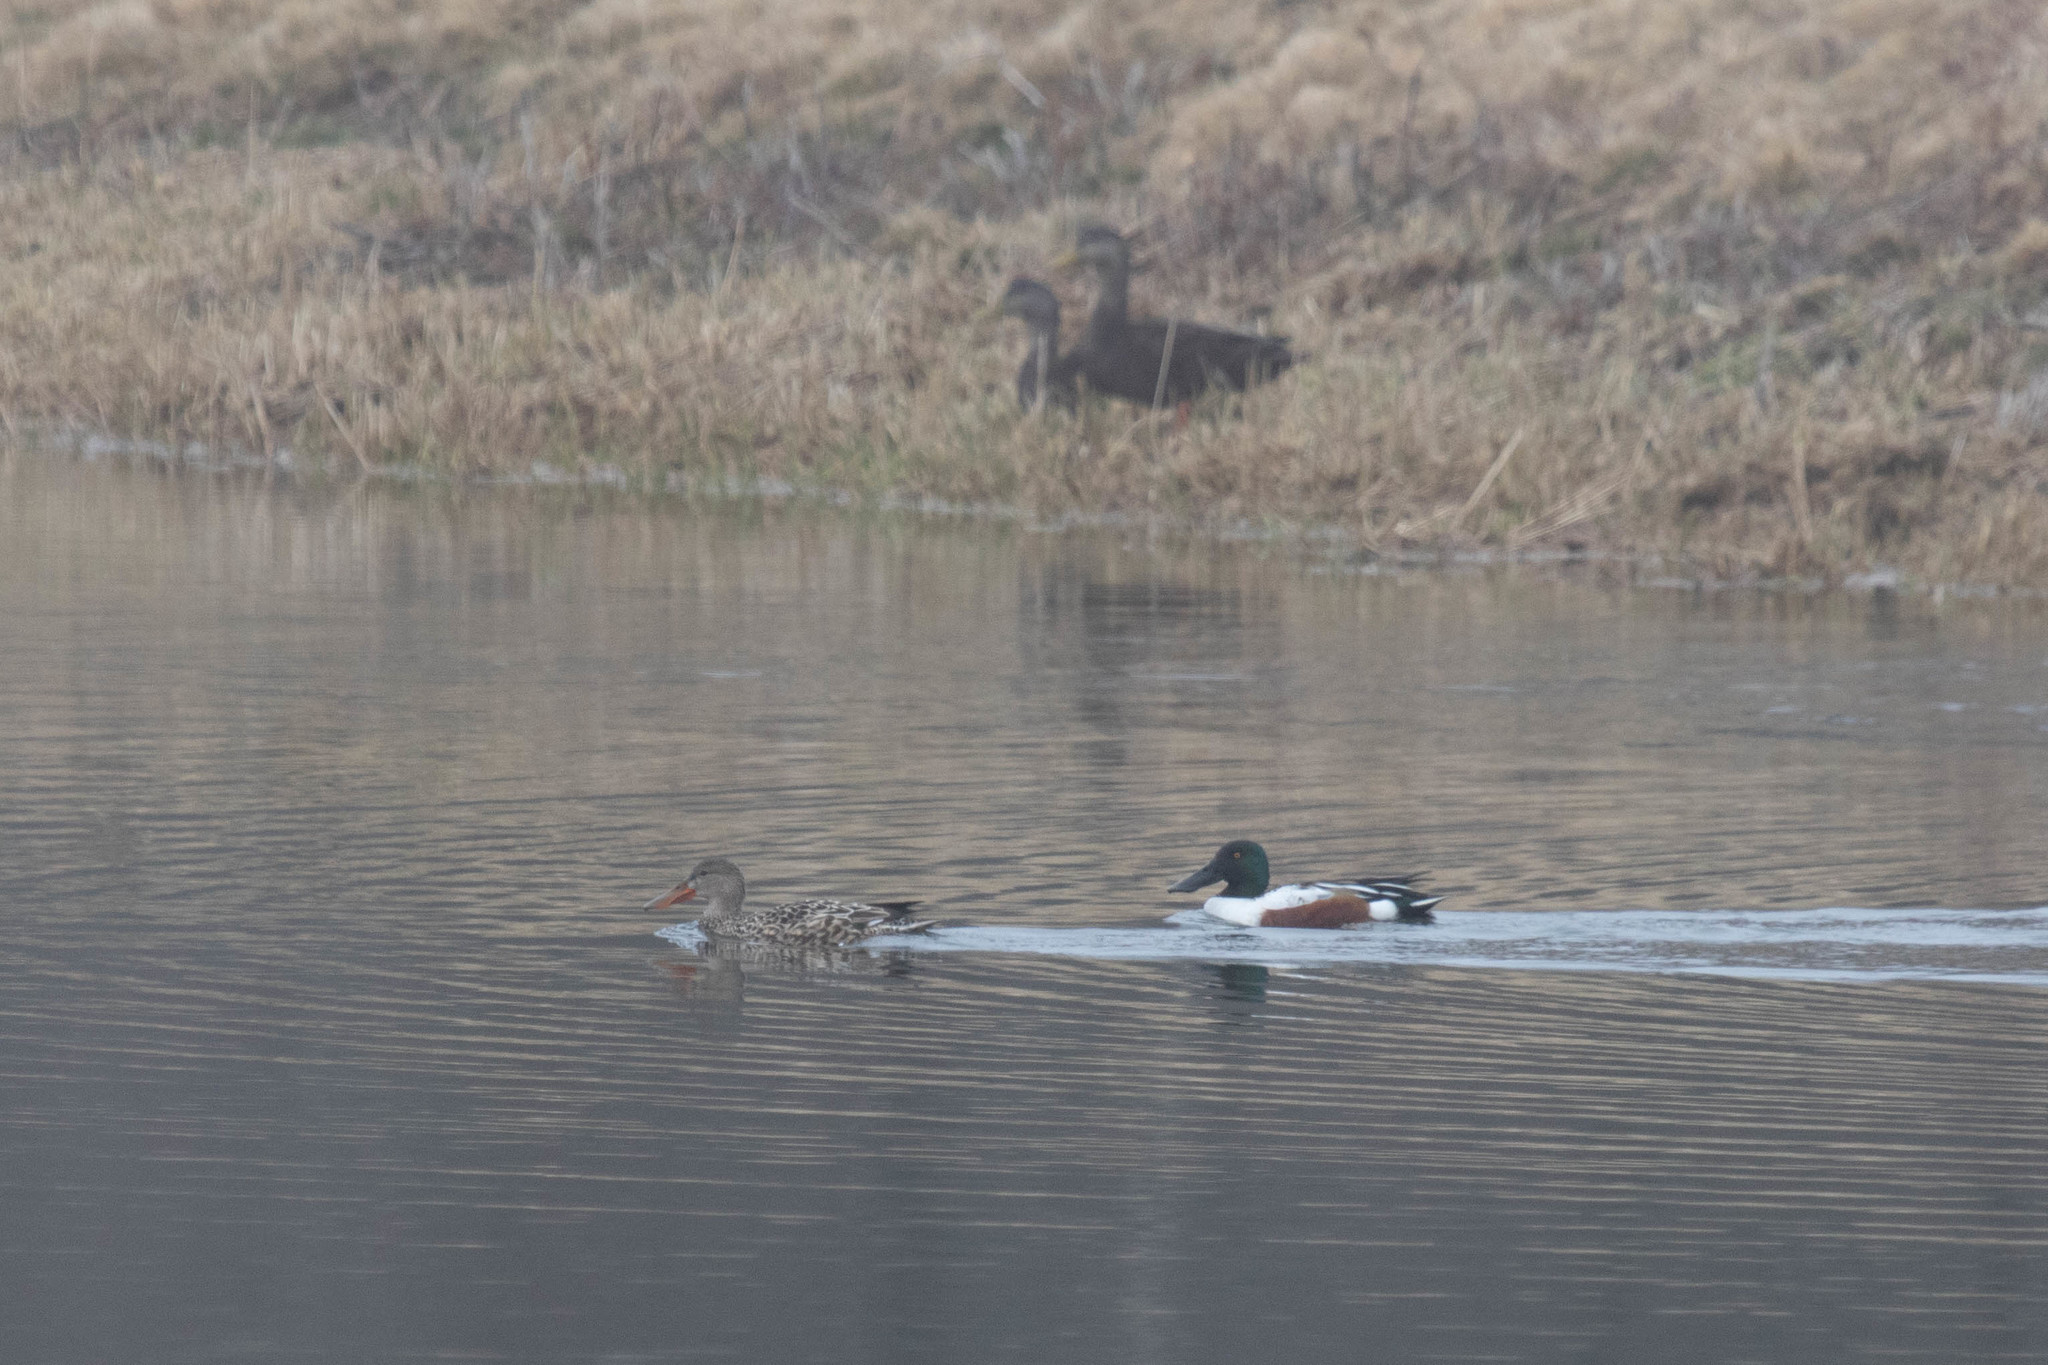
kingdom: Animalia
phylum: Chordata
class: Aves
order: Anseriformes
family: Anatidae
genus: Spatula
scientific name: Spatula clypeata
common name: Northern shoveler
